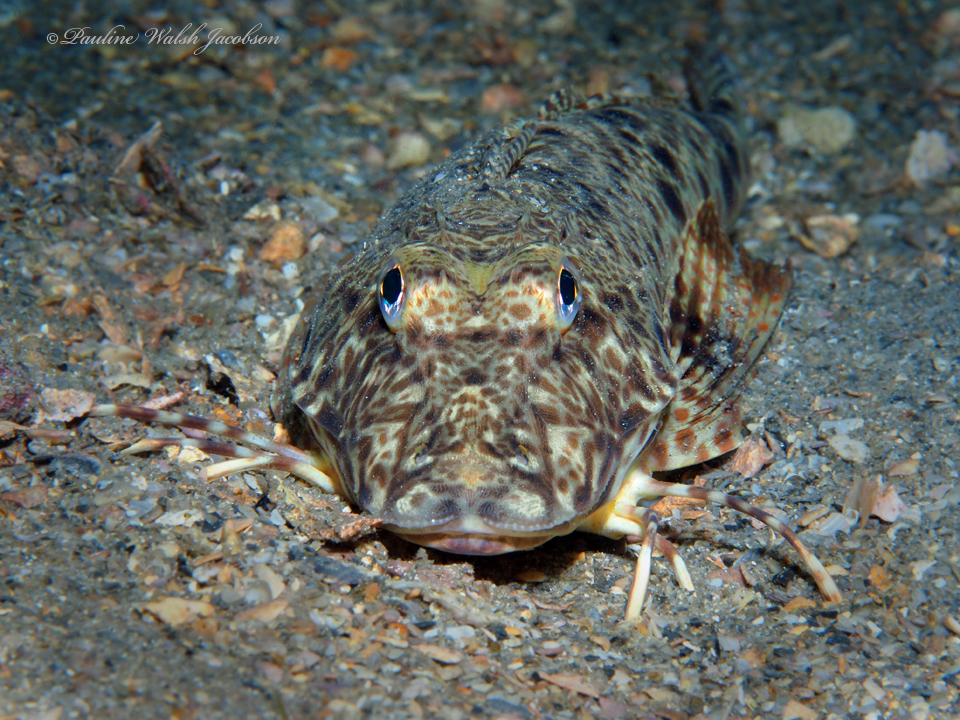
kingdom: Animalia
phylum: Chordata
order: Scorpaeniformes
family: Triglidae
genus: Prionotus
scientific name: Prionotus scitulus
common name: Leopard searobin
